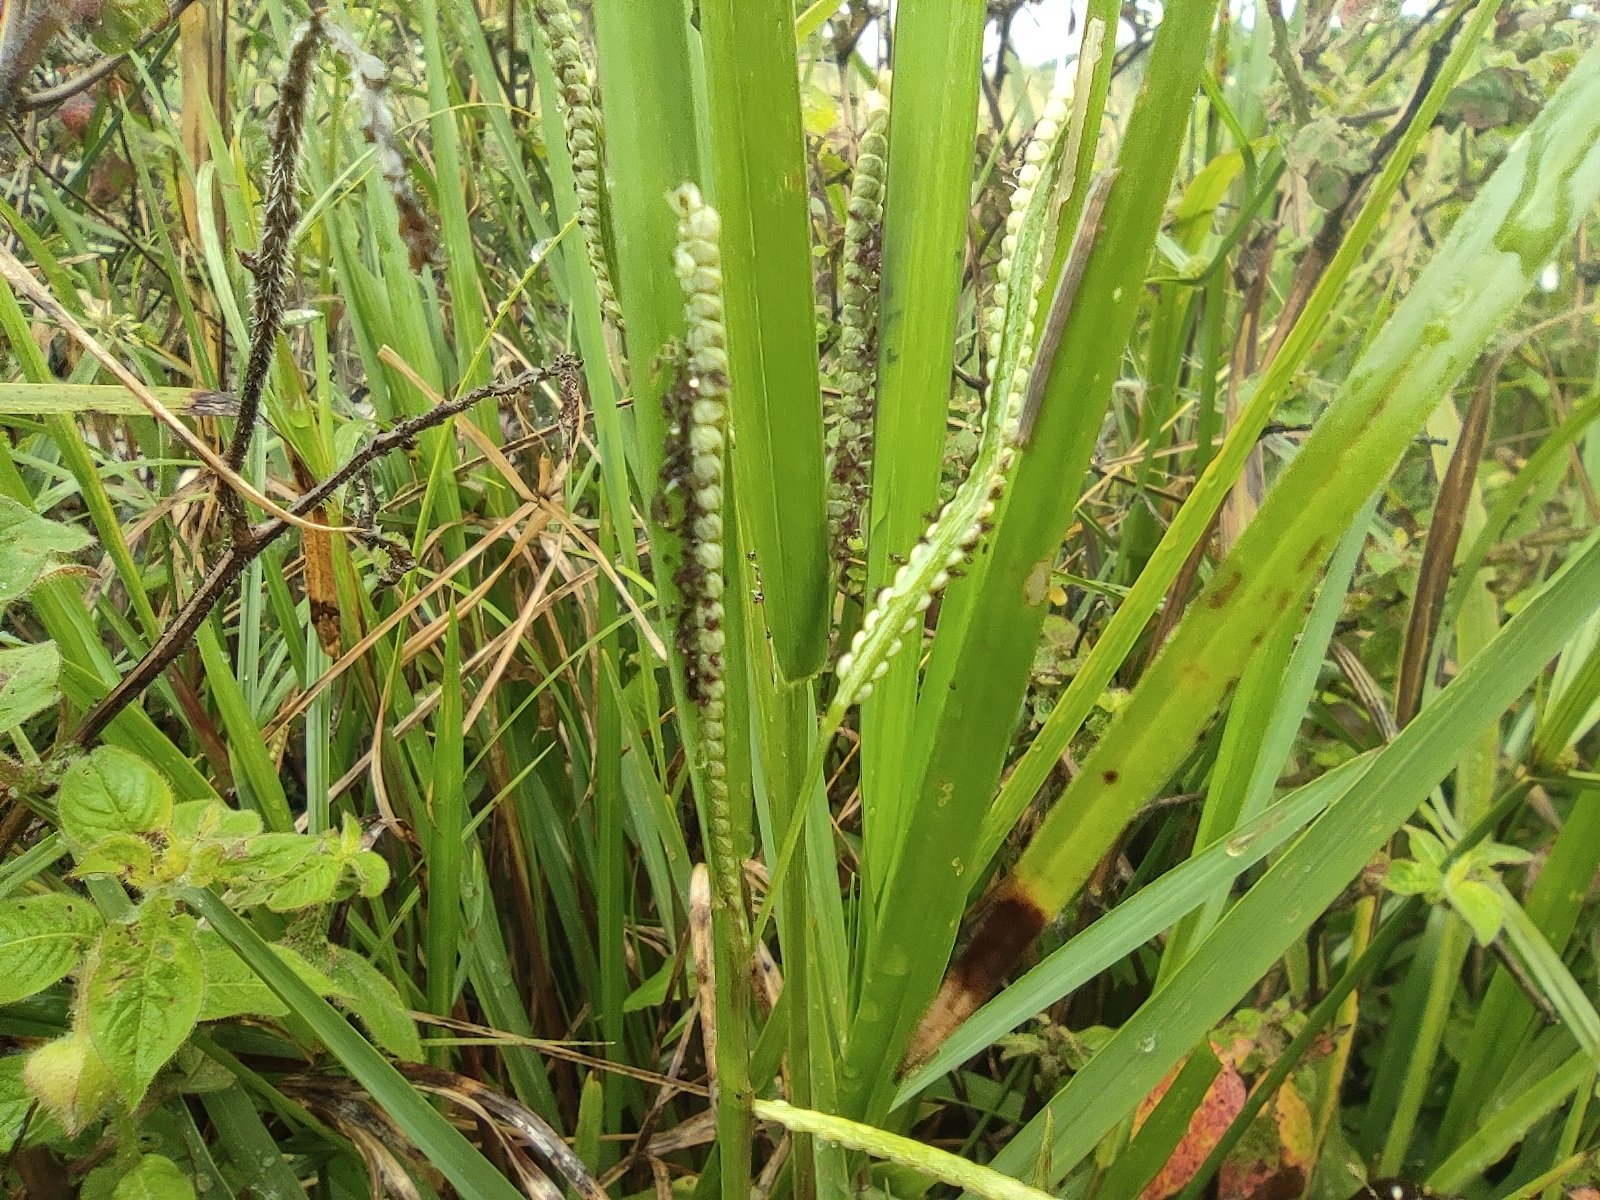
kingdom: Plantae
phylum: Tracheophyta
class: Liliopsida
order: Poales
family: Poaceae
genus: Paspalum
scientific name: Paspalum scrobiculatum
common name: Kodo millet
